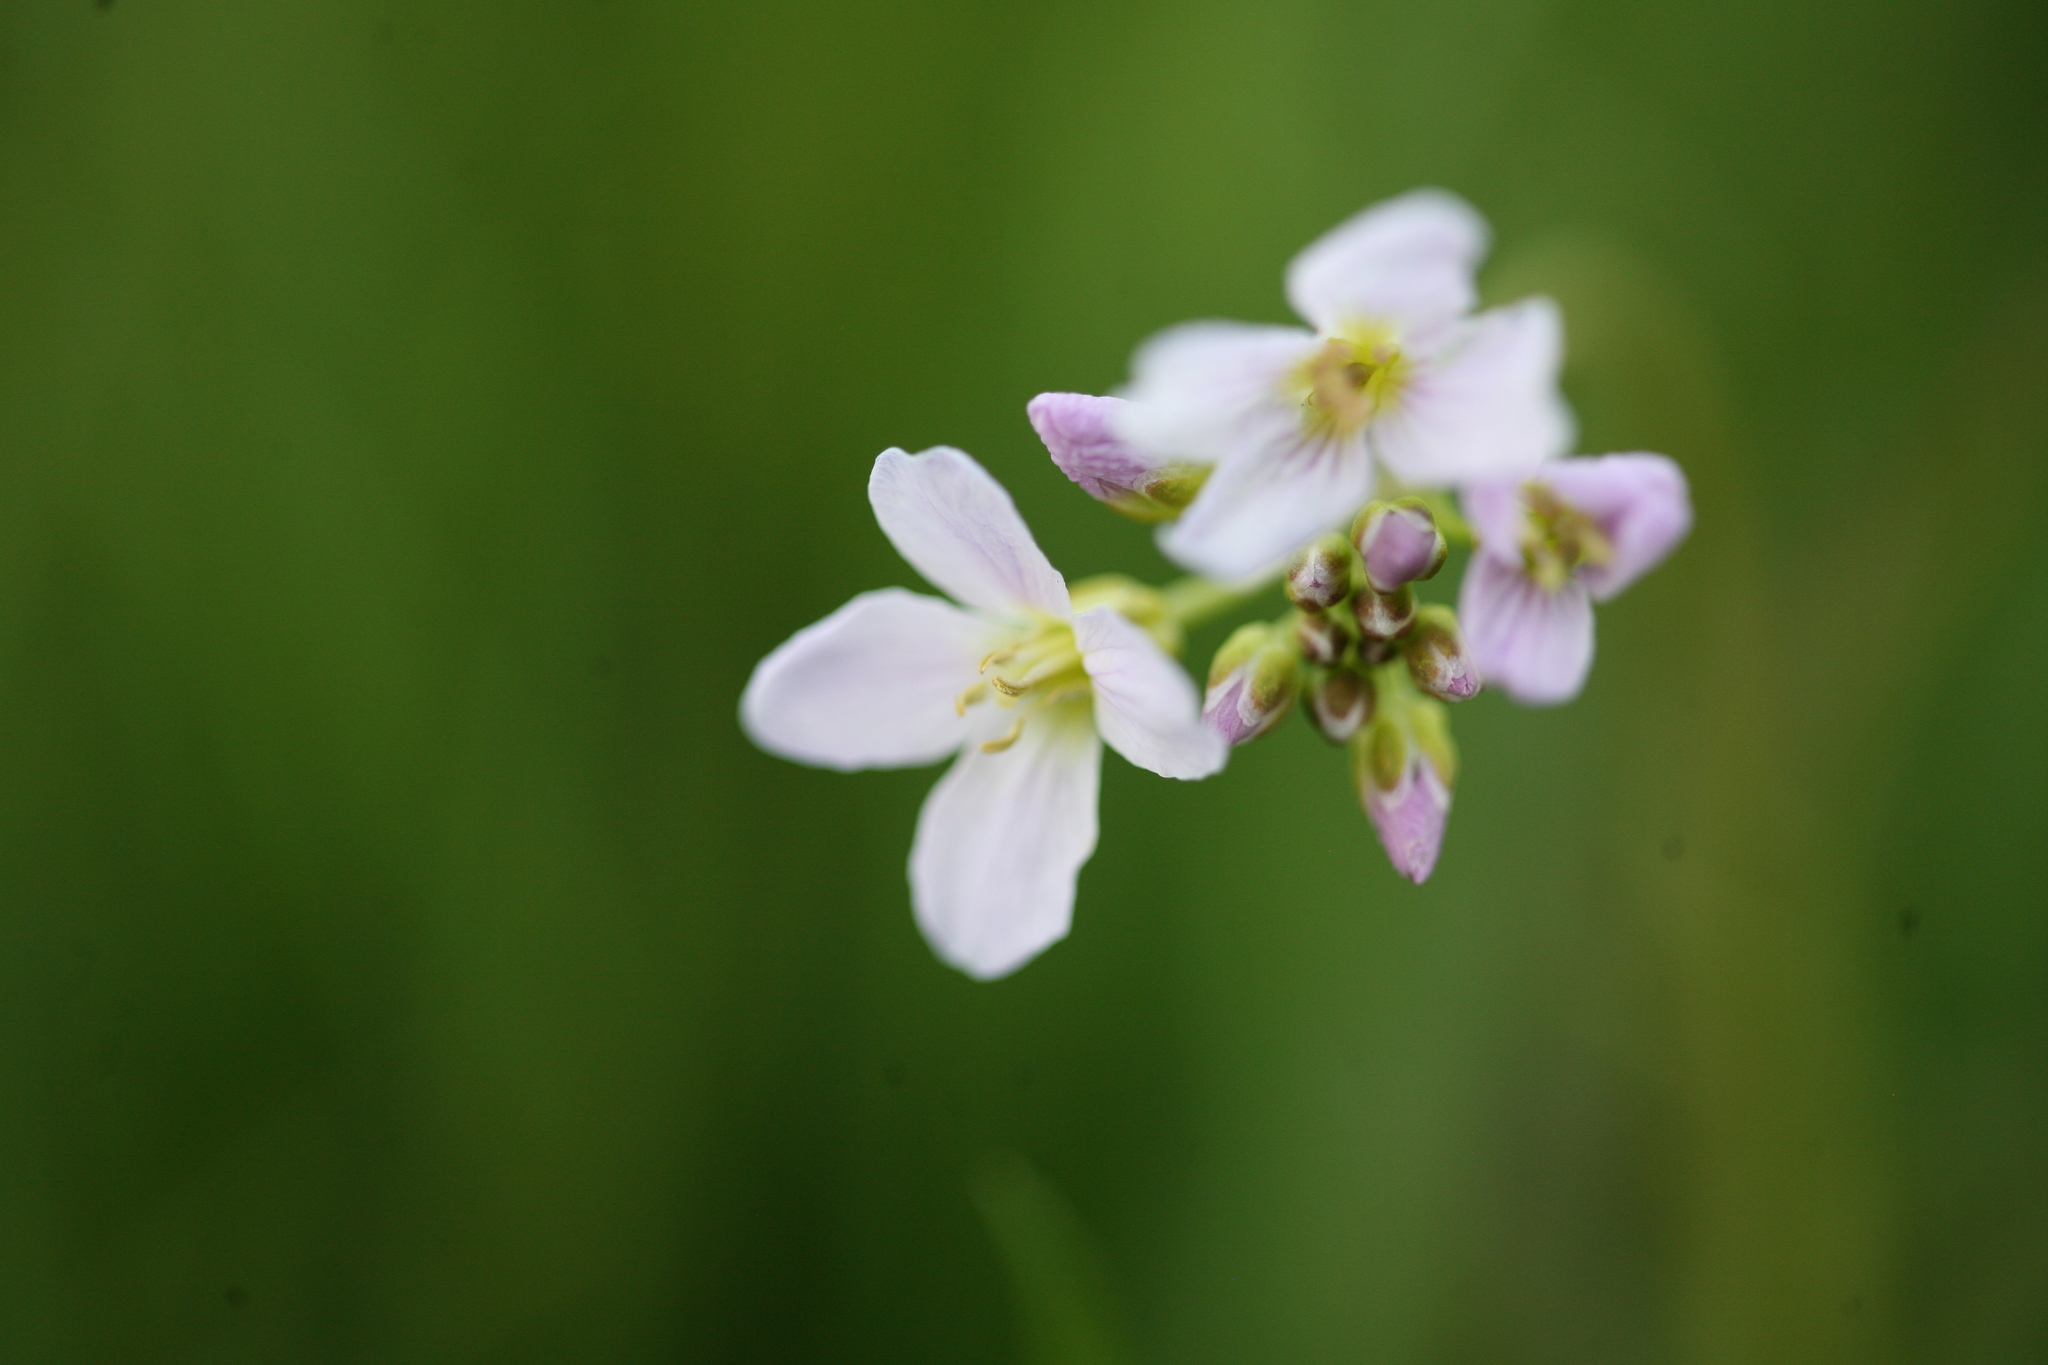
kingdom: Plantae
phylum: Tracheophyta
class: Magnoliopsida
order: Brassicales
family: Brassicaceae
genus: Cardamine
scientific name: Cardamine pratensis
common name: Cuckoo flower
